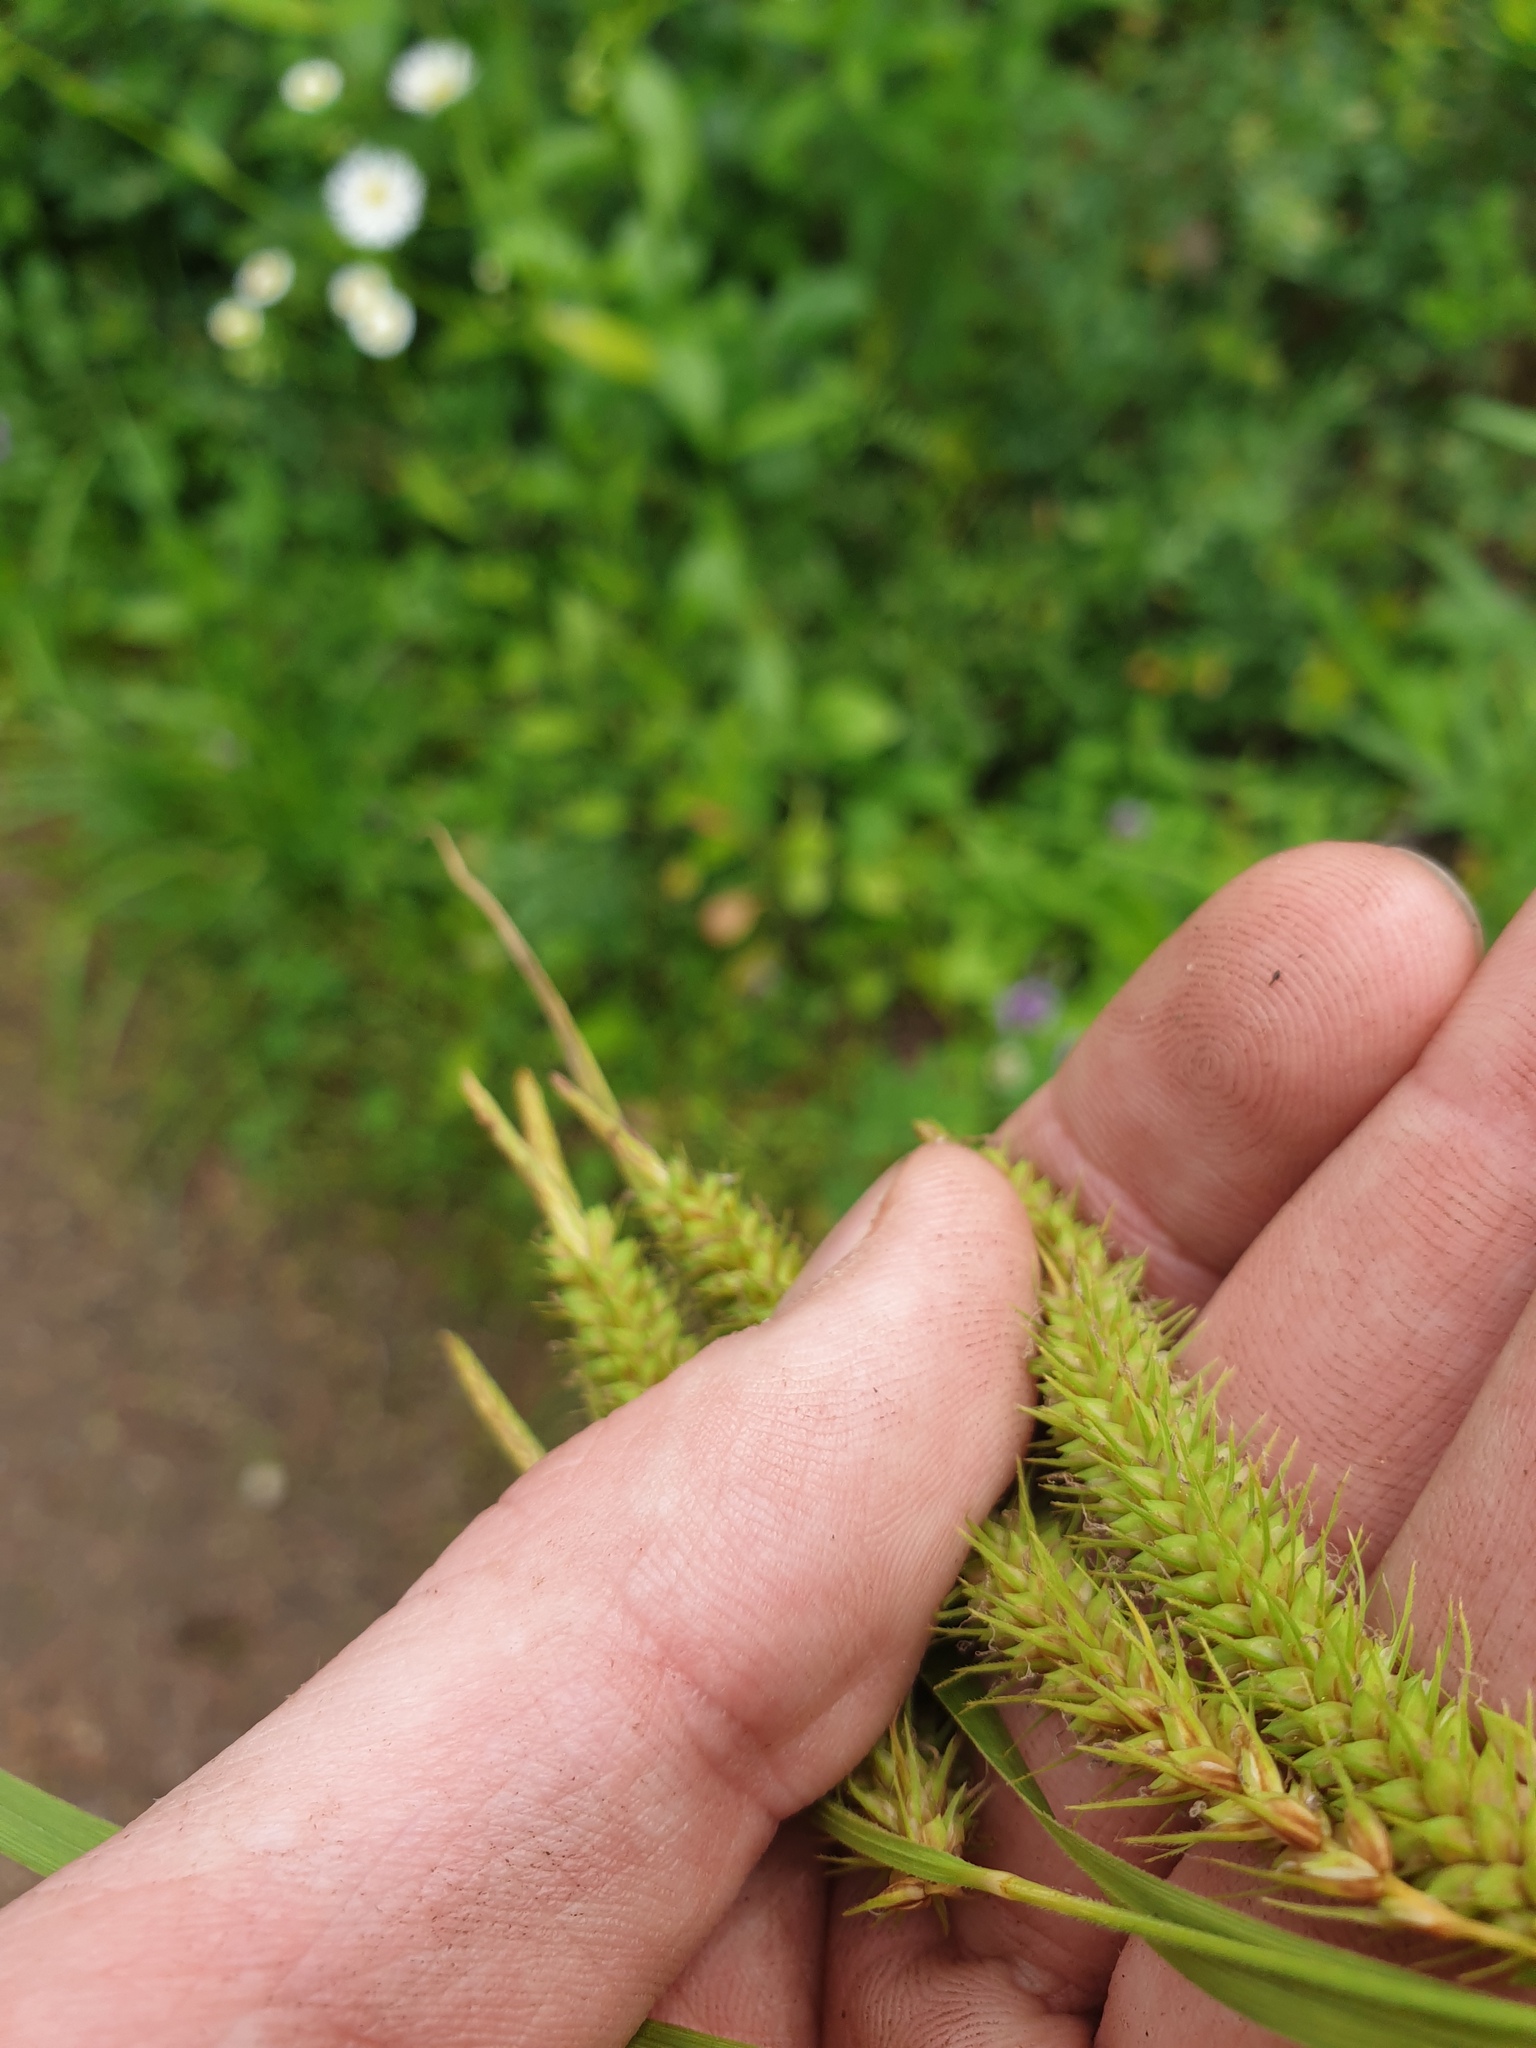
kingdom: Plantae
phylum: Tracheophyta
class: Liliopsida
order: Poales
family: Cyperaceae
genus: Carex
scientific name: Carex gynandra
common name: Nodding sedge
